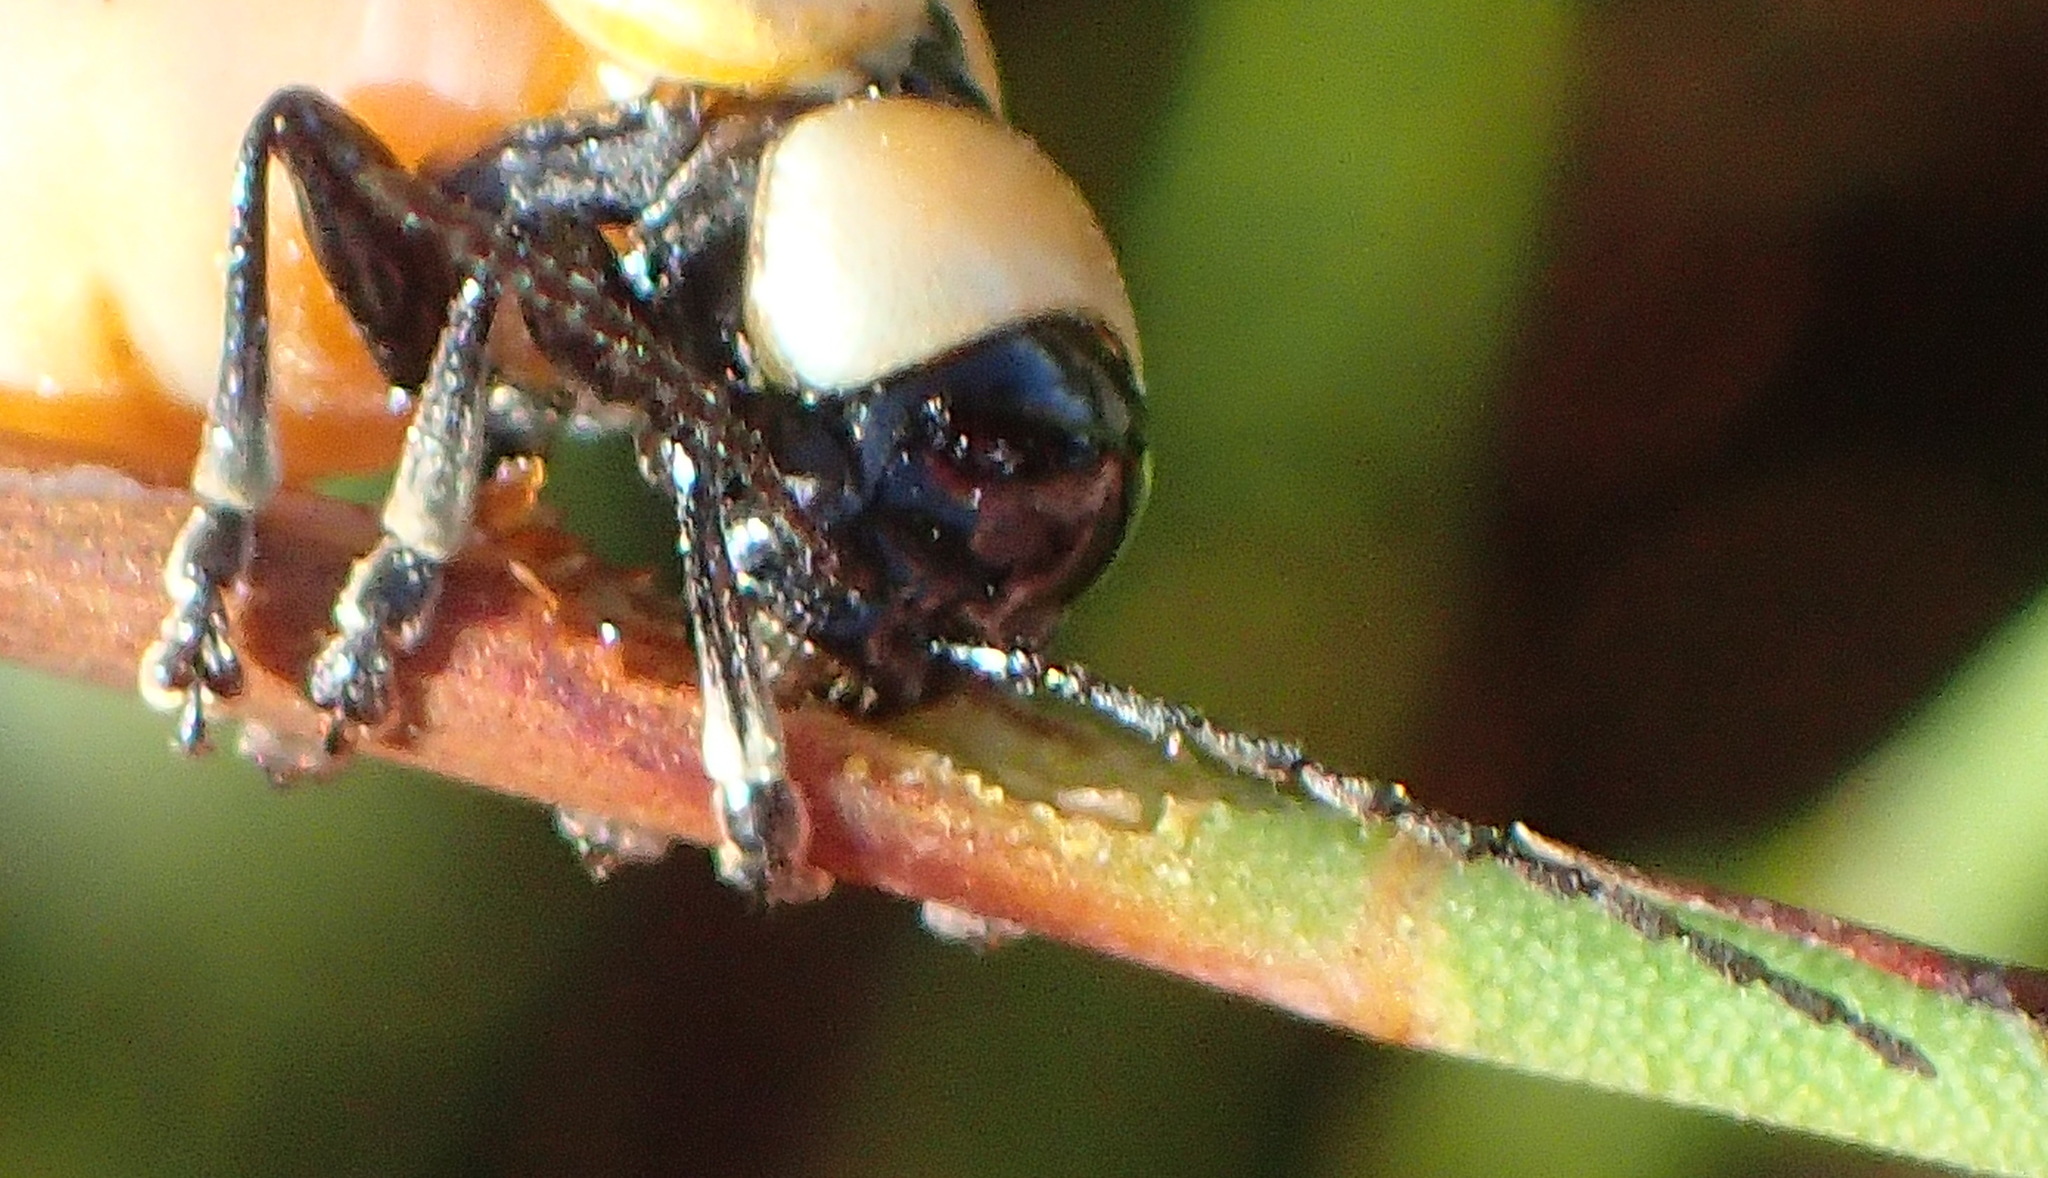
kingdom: Animalia
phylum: Arthropoda
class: Insecta
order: Coleoptera
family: Chrysomelidae
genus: Pseudorupilia
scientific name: Pseudorupilia
